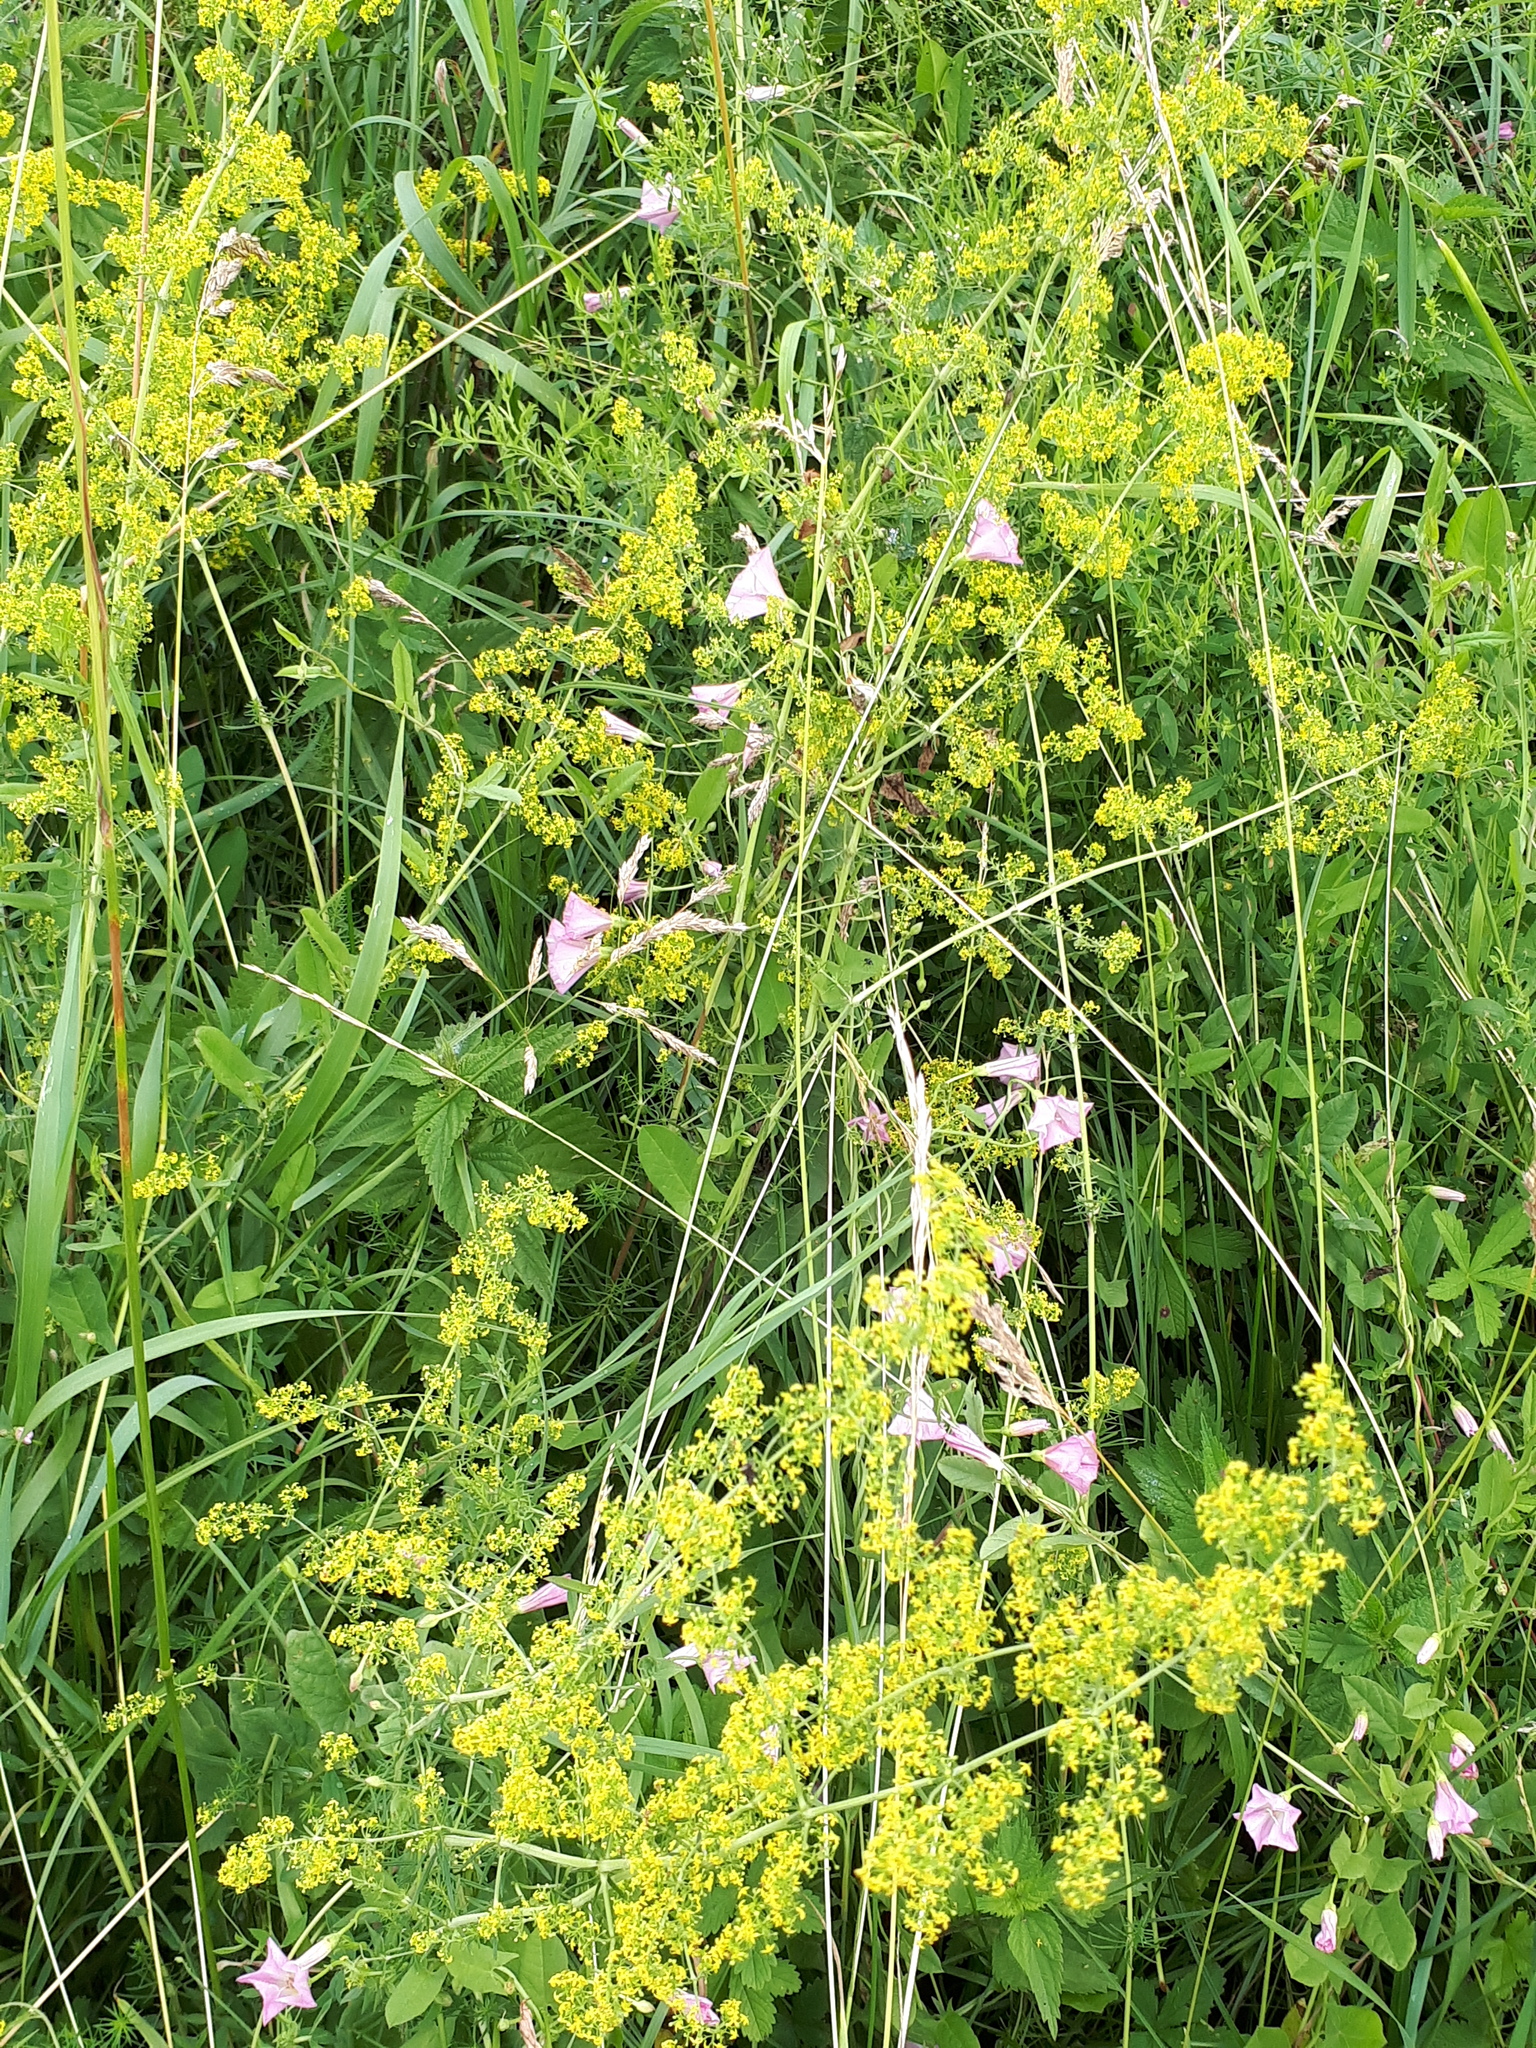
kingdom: Plantae
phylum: Tracheophyta
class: Magnoliopsida
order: Gentianales
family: Rubiaceae
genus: Galium
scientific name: Galium verum
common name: Lady's bedstraw
